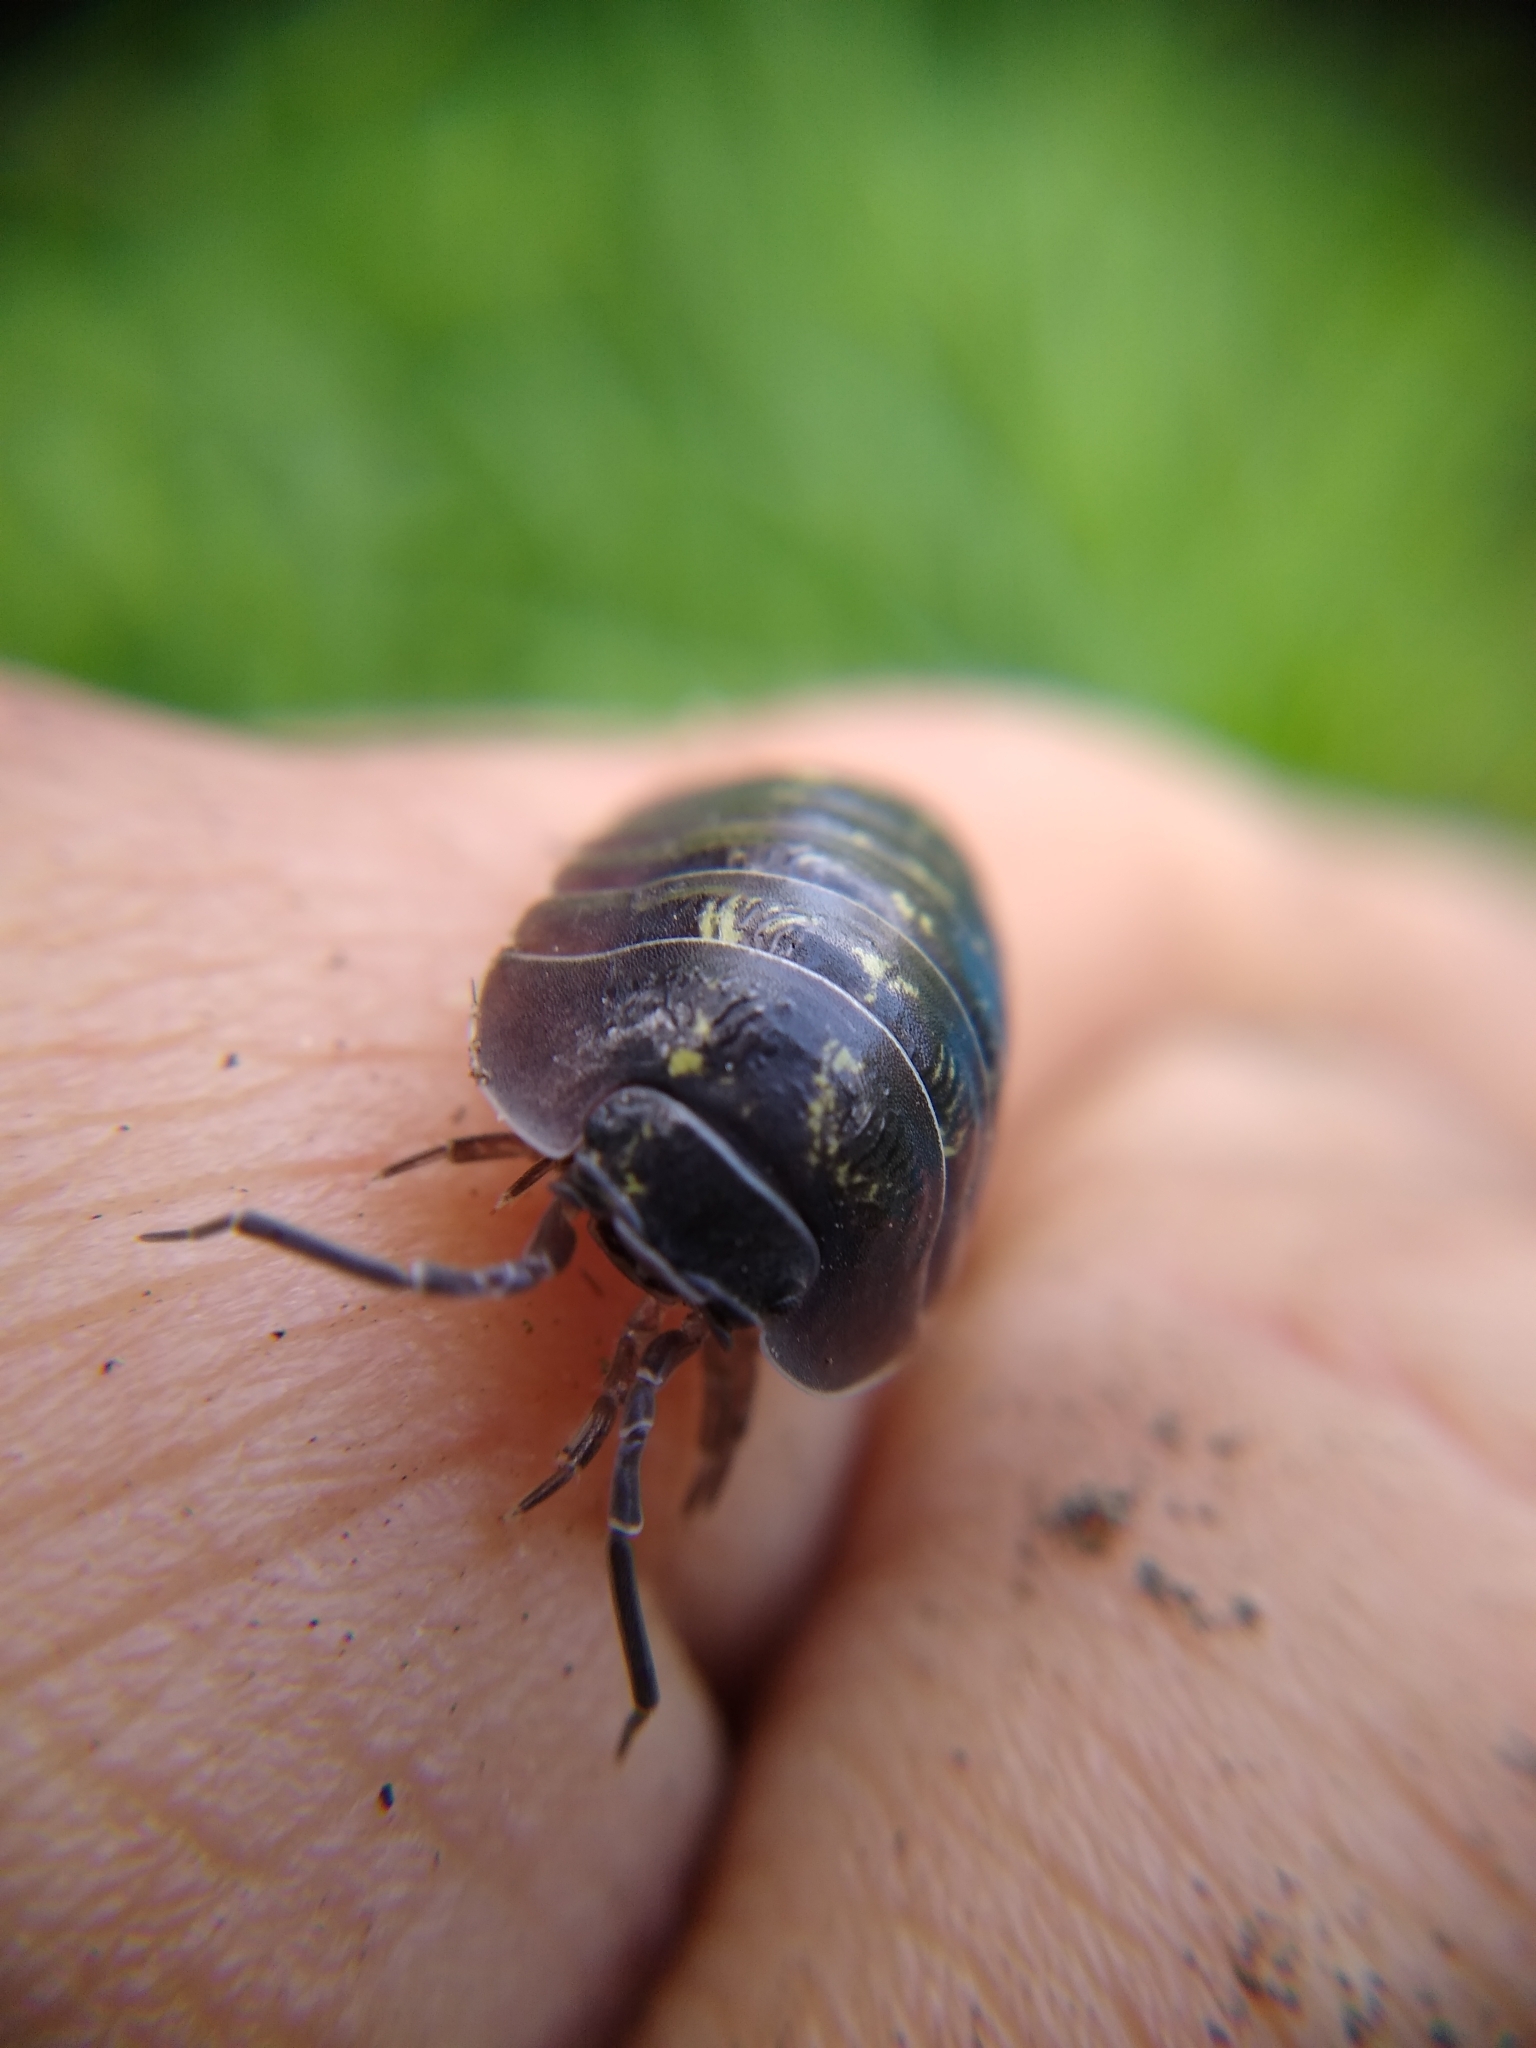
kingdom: Animalia
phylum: Arthropoda
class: Malacostraca
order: Isopoda
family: Armadillidiidae
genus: Armadillidium
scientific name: Armadillidium depressum
